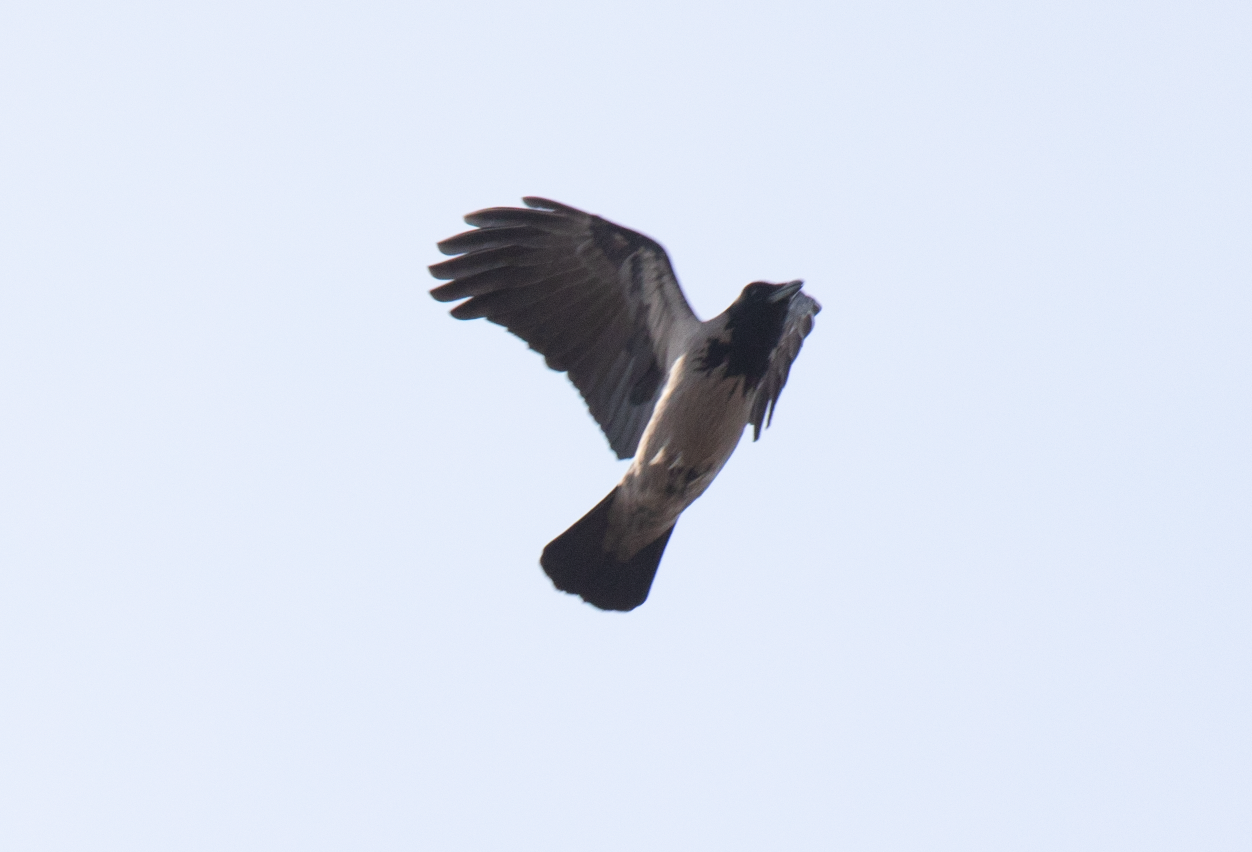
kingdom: Animalia
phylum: Chordata
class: Aves
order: Passeriformes
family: Corvidae
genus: Corvus
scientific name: Corvus cornix
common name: Hooded crow
